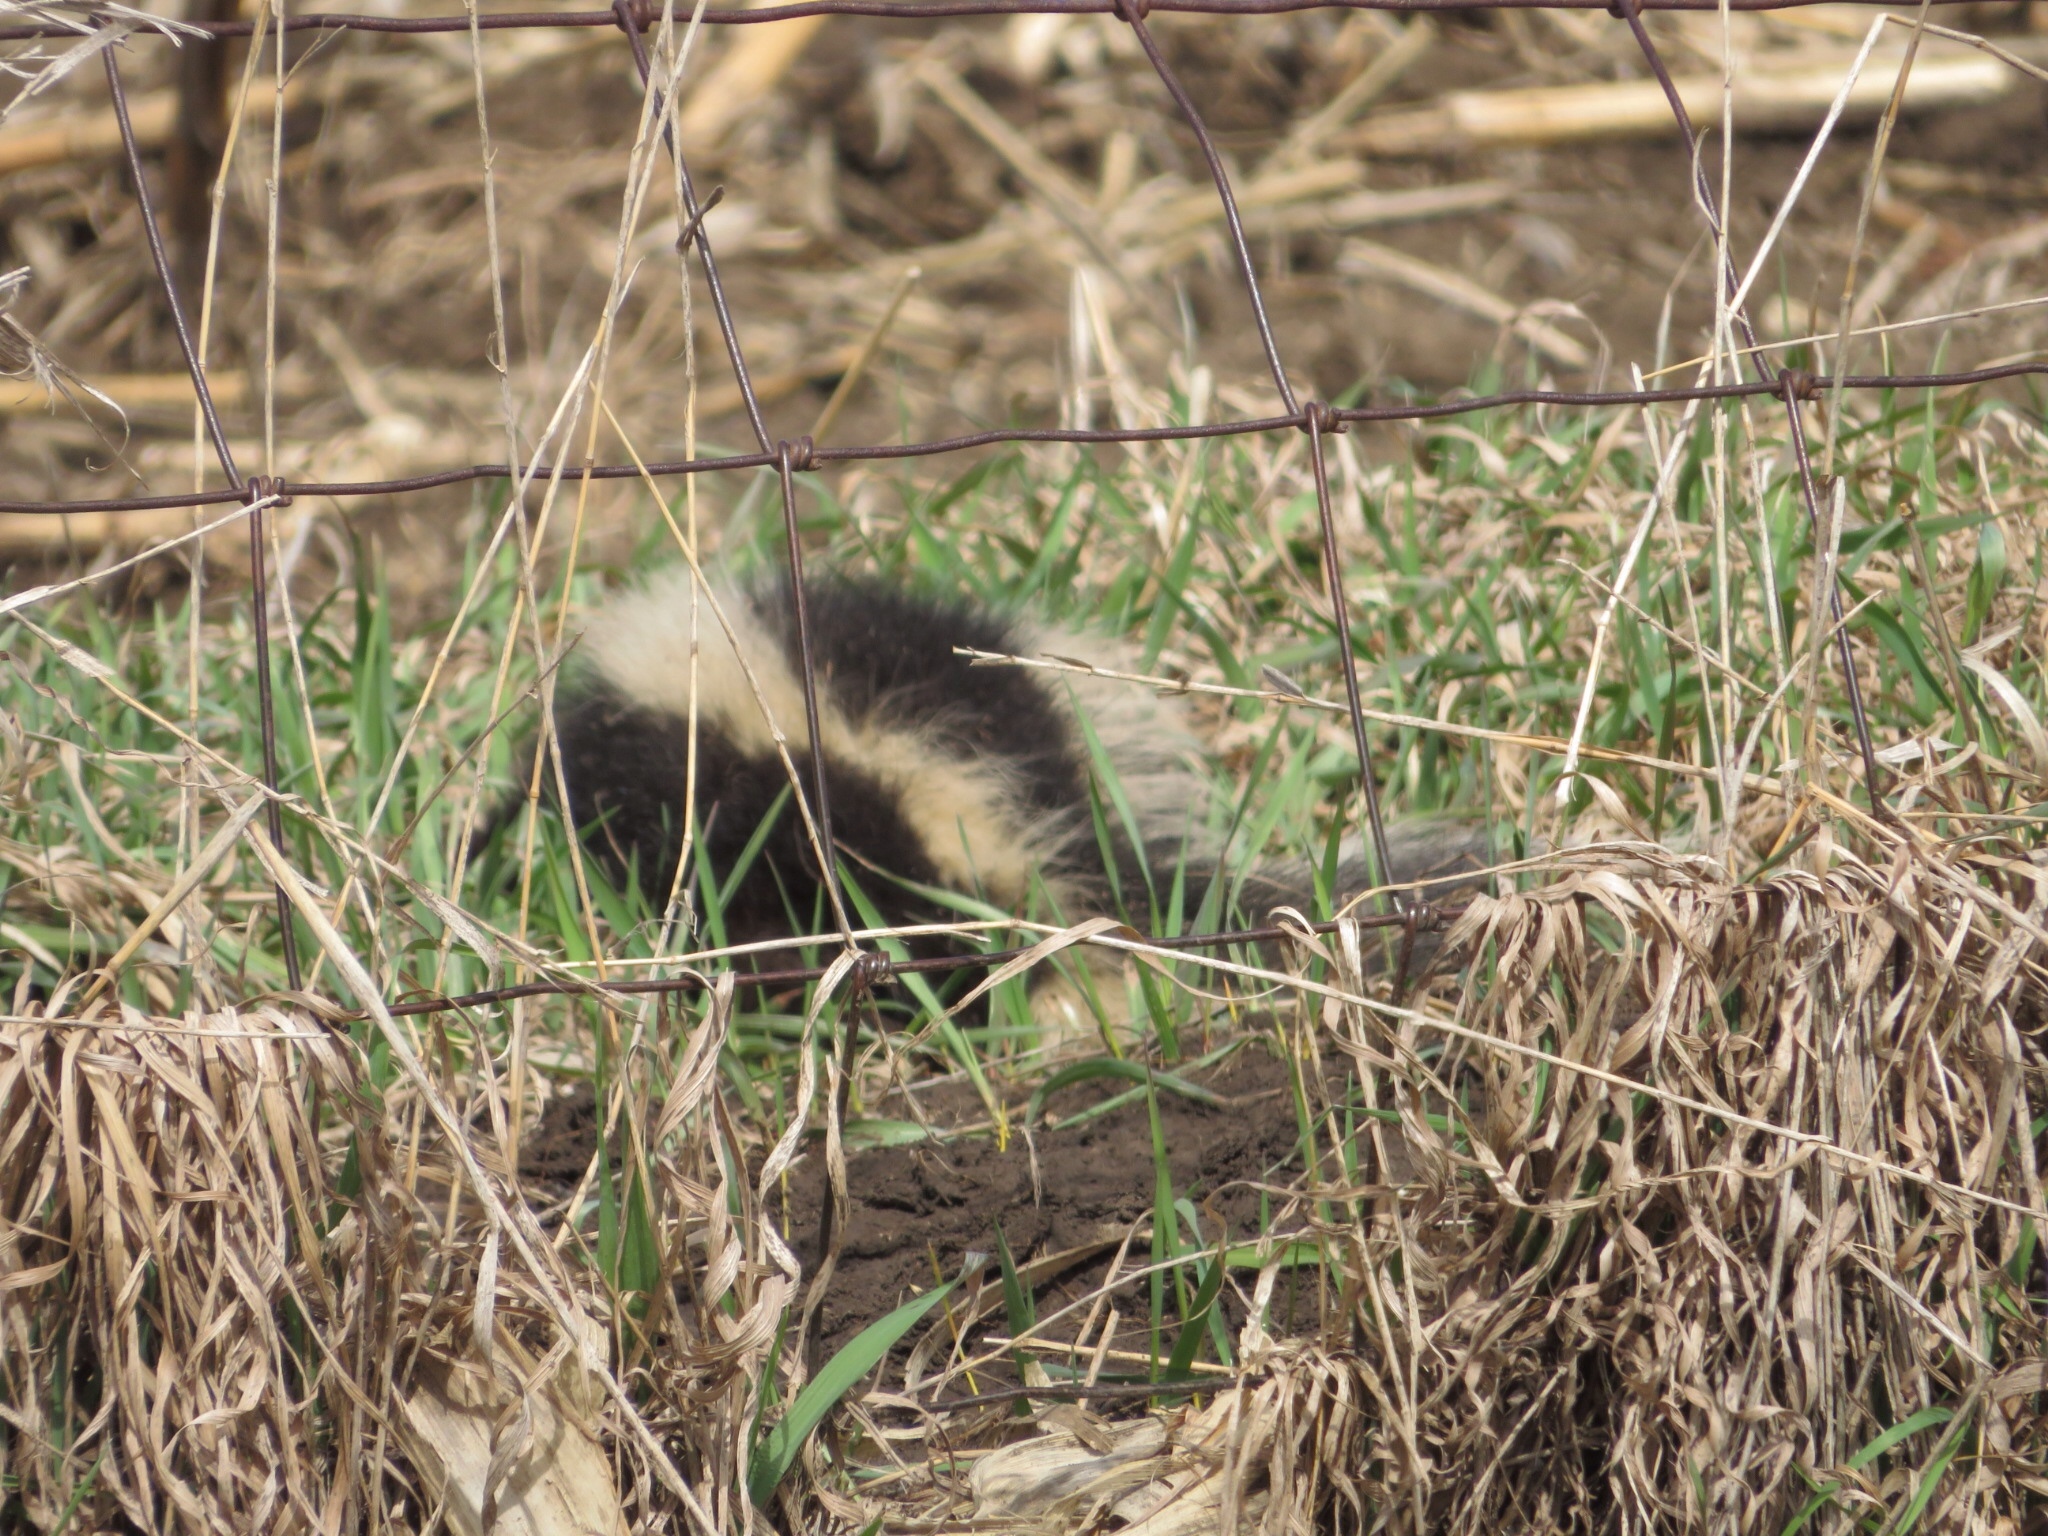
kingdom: Animalia
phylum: Chordata
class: Mammalia
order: Carnivora
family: Mephitidae
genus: Mephitis
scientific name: Mephitis mephitis
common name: Striped skunk
